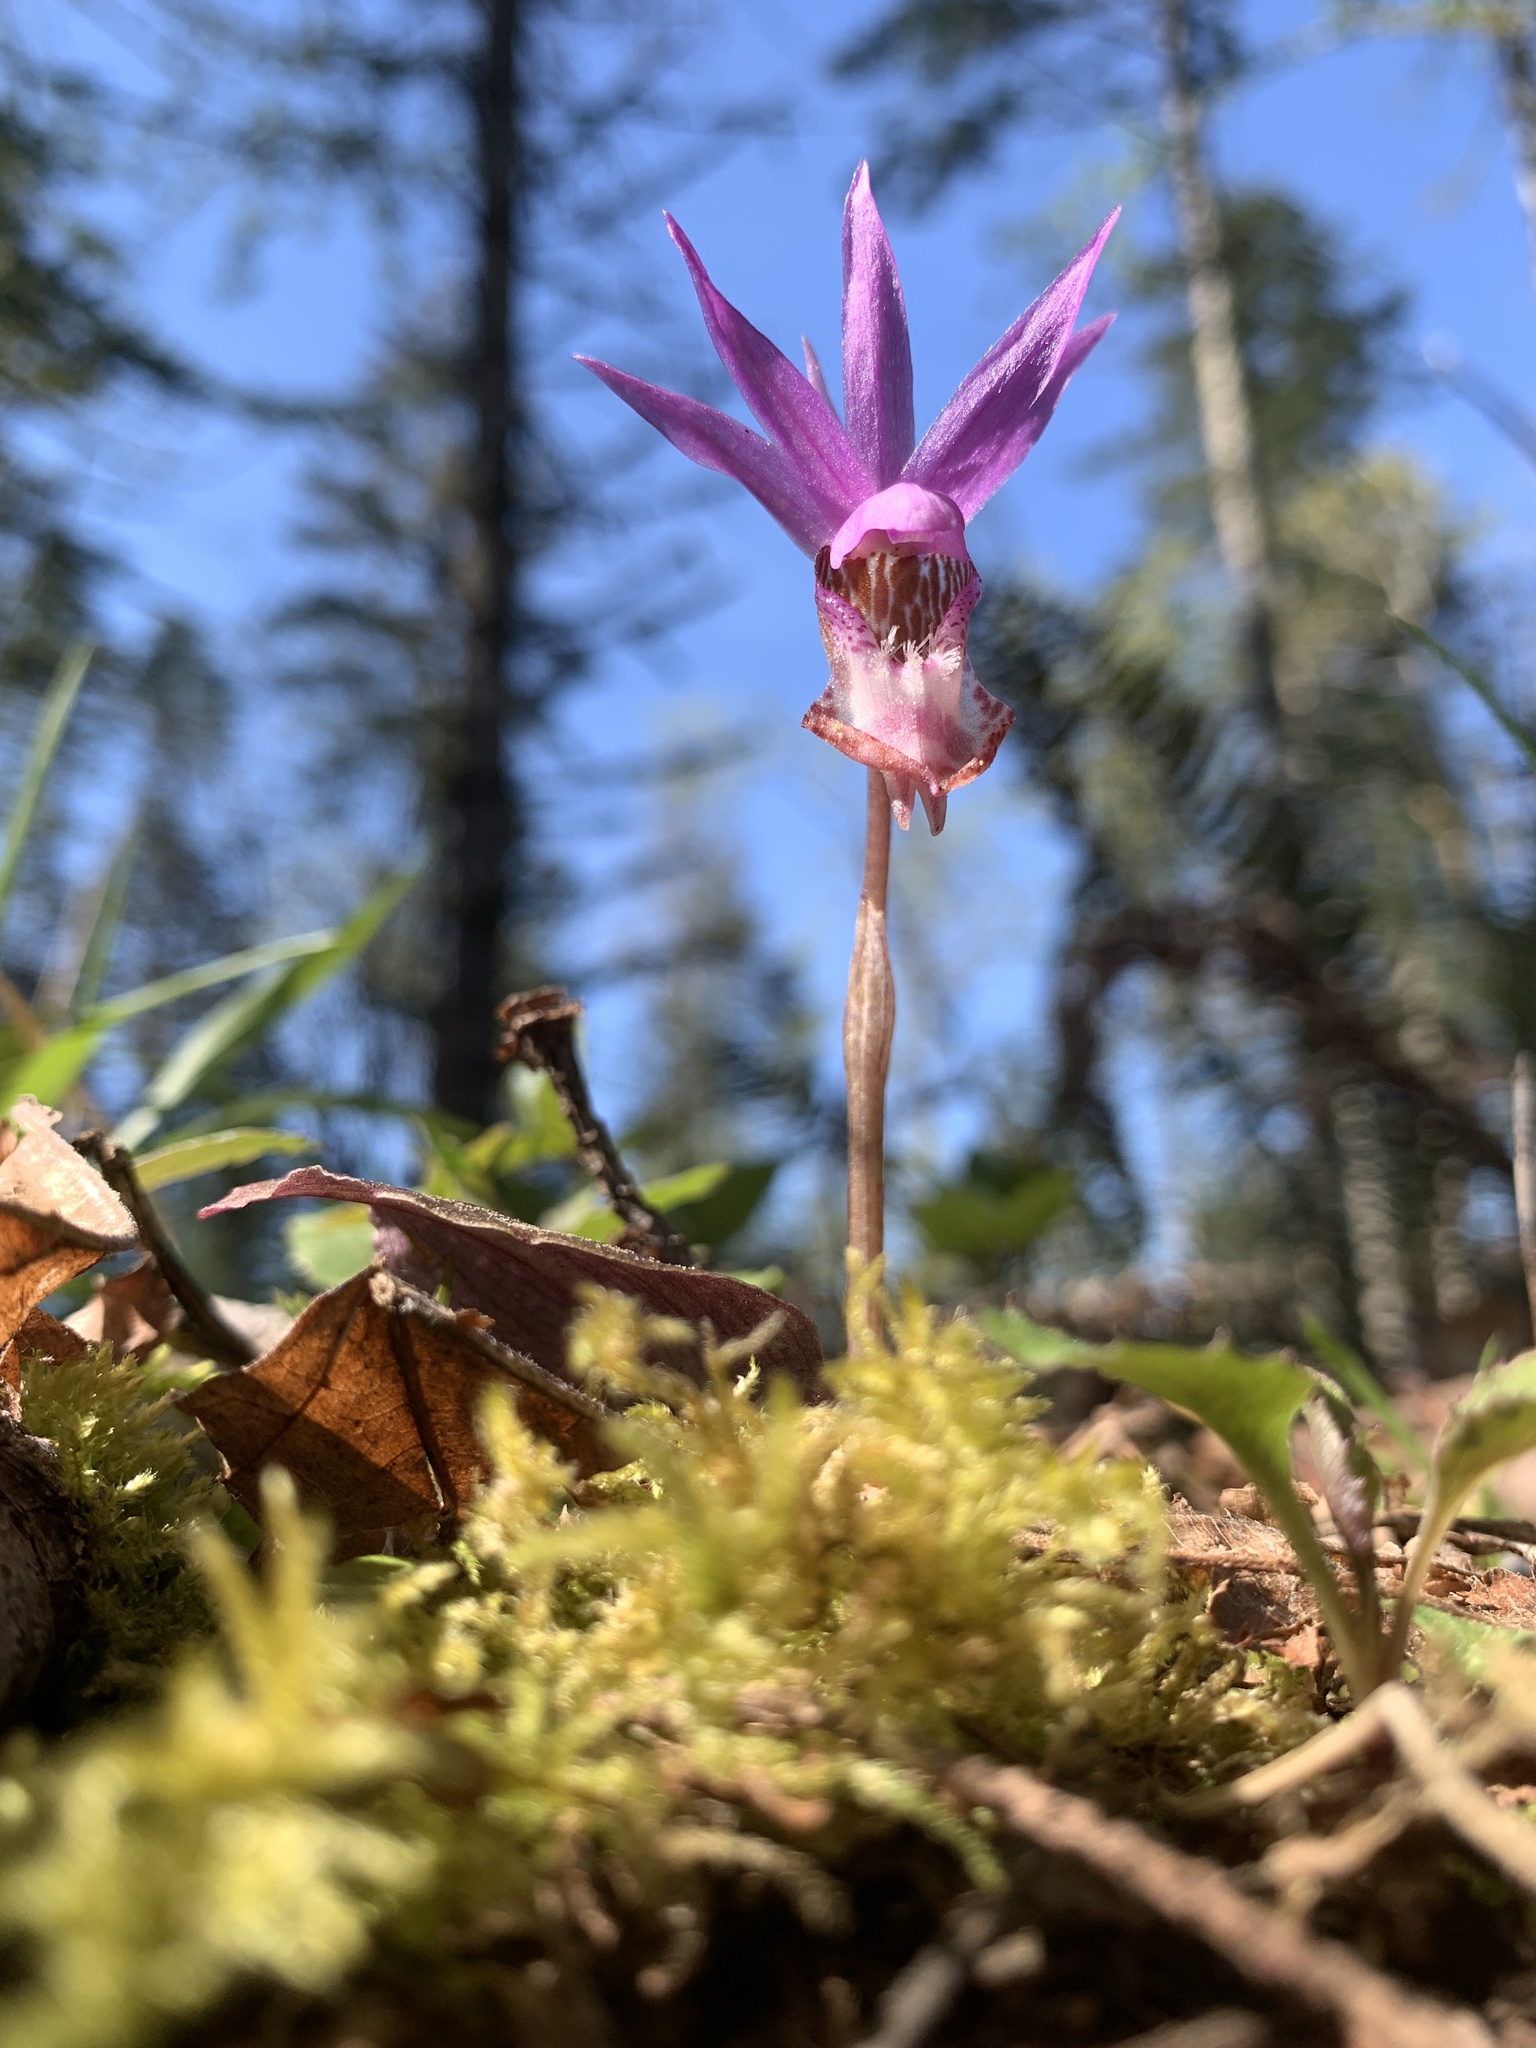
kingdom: Plantae
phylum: Tracheophyta
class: Liliopsida
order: Asparagales
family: Orchidaceae
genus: Calypso
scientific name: Calypso bulbosa
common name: Calypso
